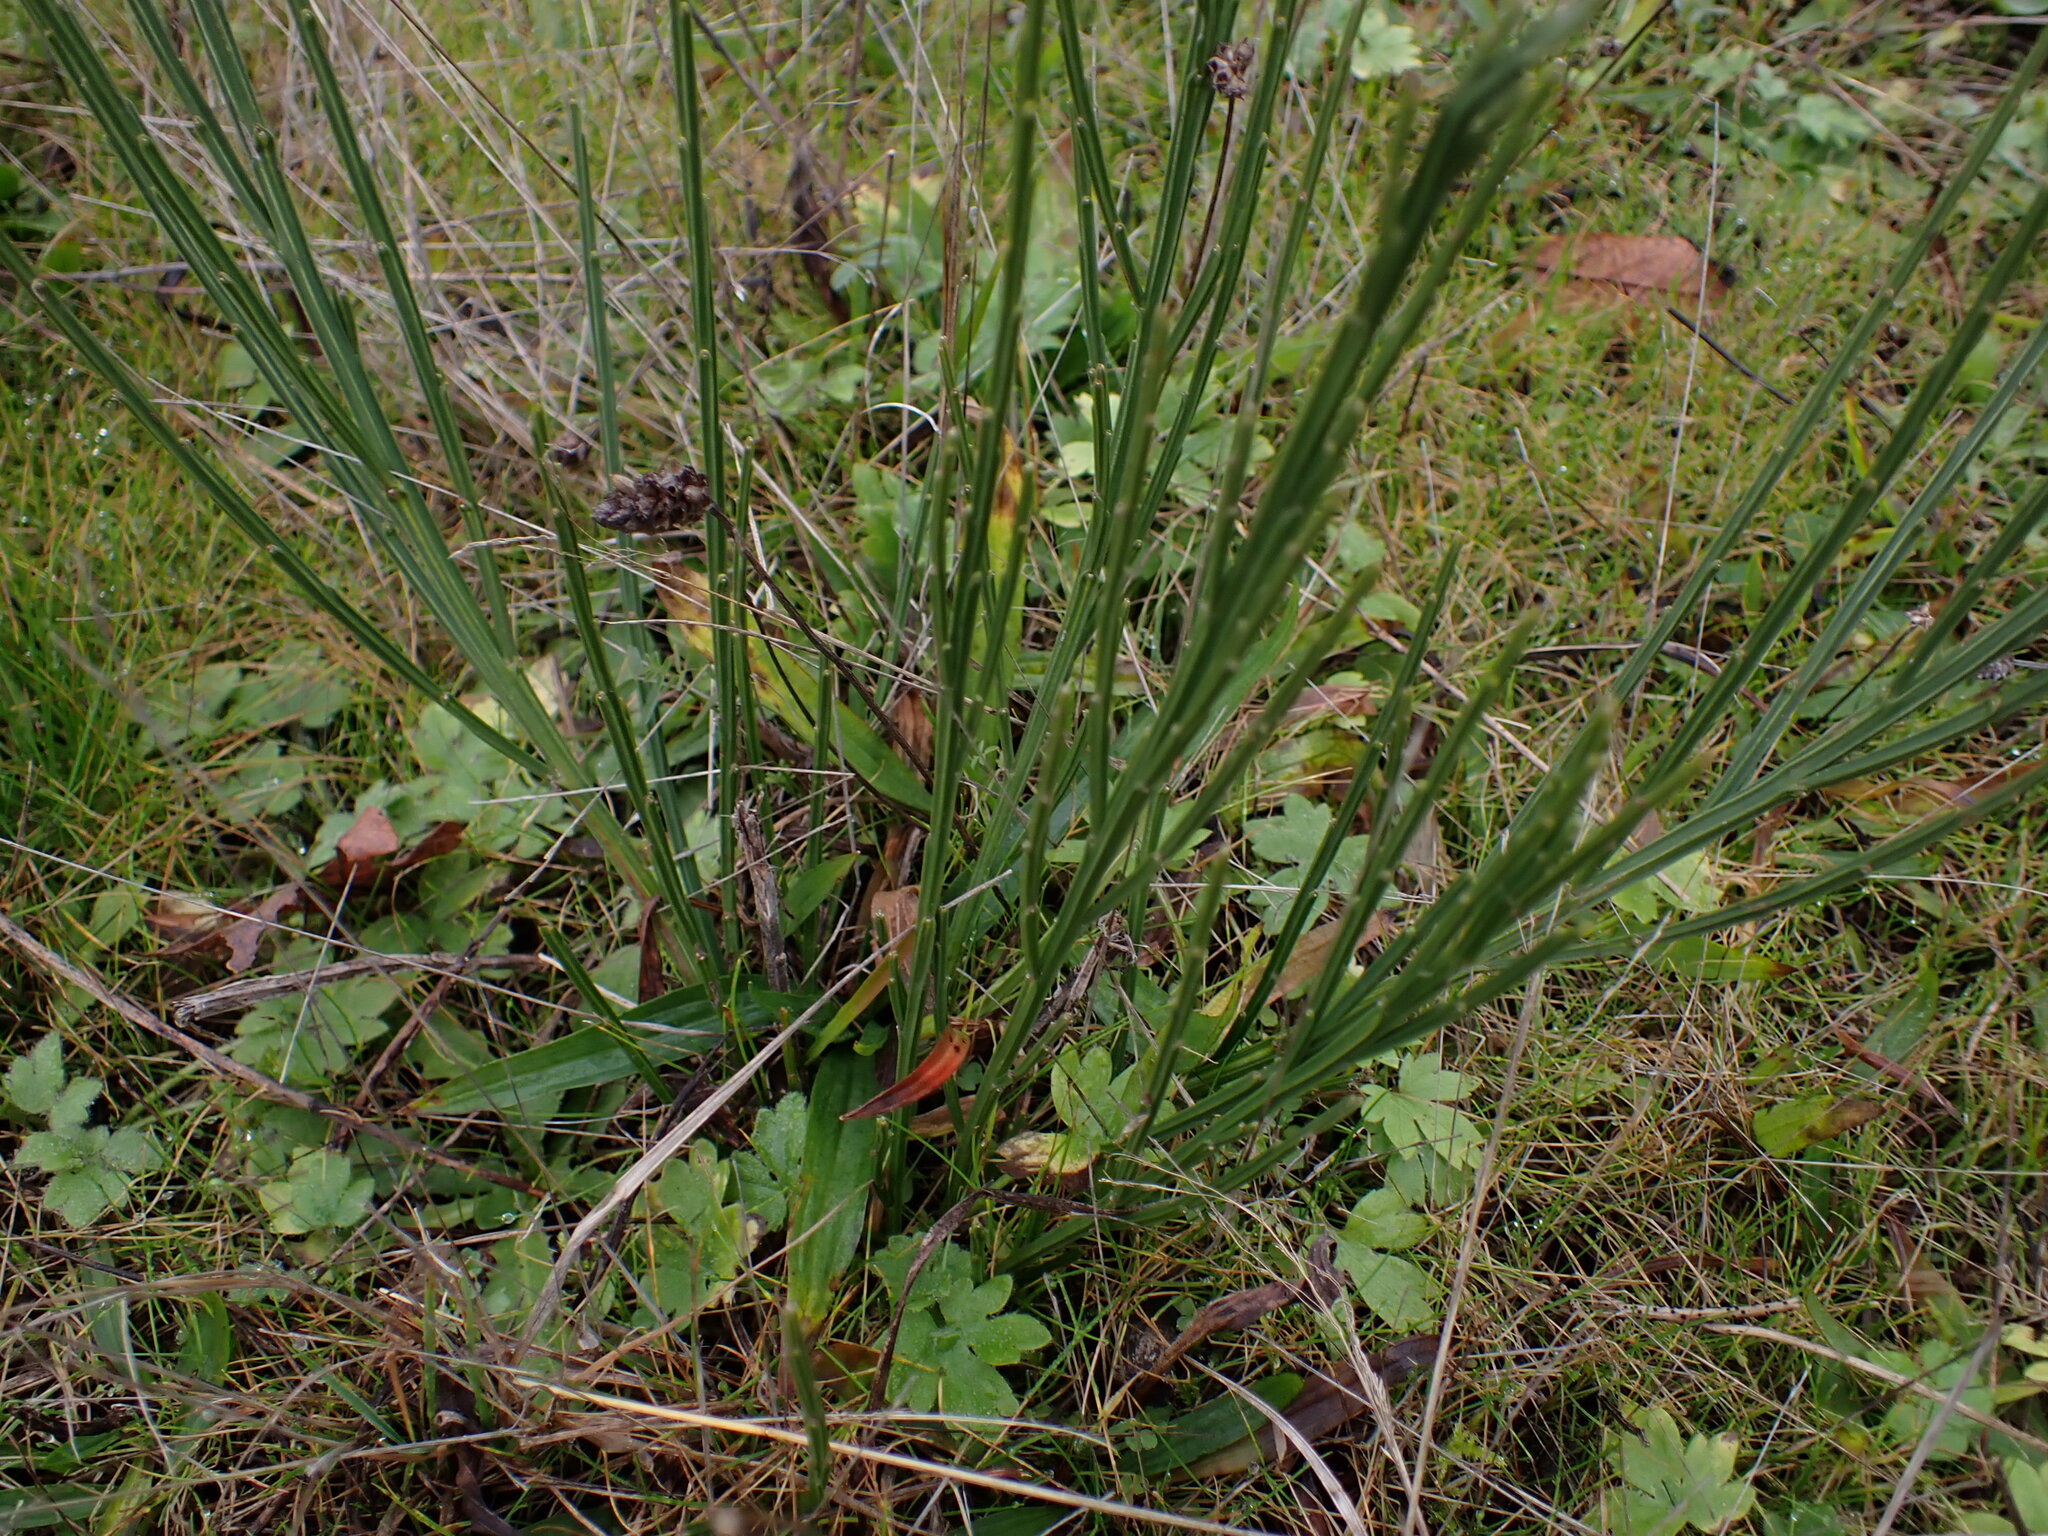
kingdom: Plantae
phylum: Tracheophyta
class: Magnoliopsida
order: Fabales
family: Fabaceae
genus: Cytisus
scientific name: Cytisus scoparius
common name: Scotch broom
